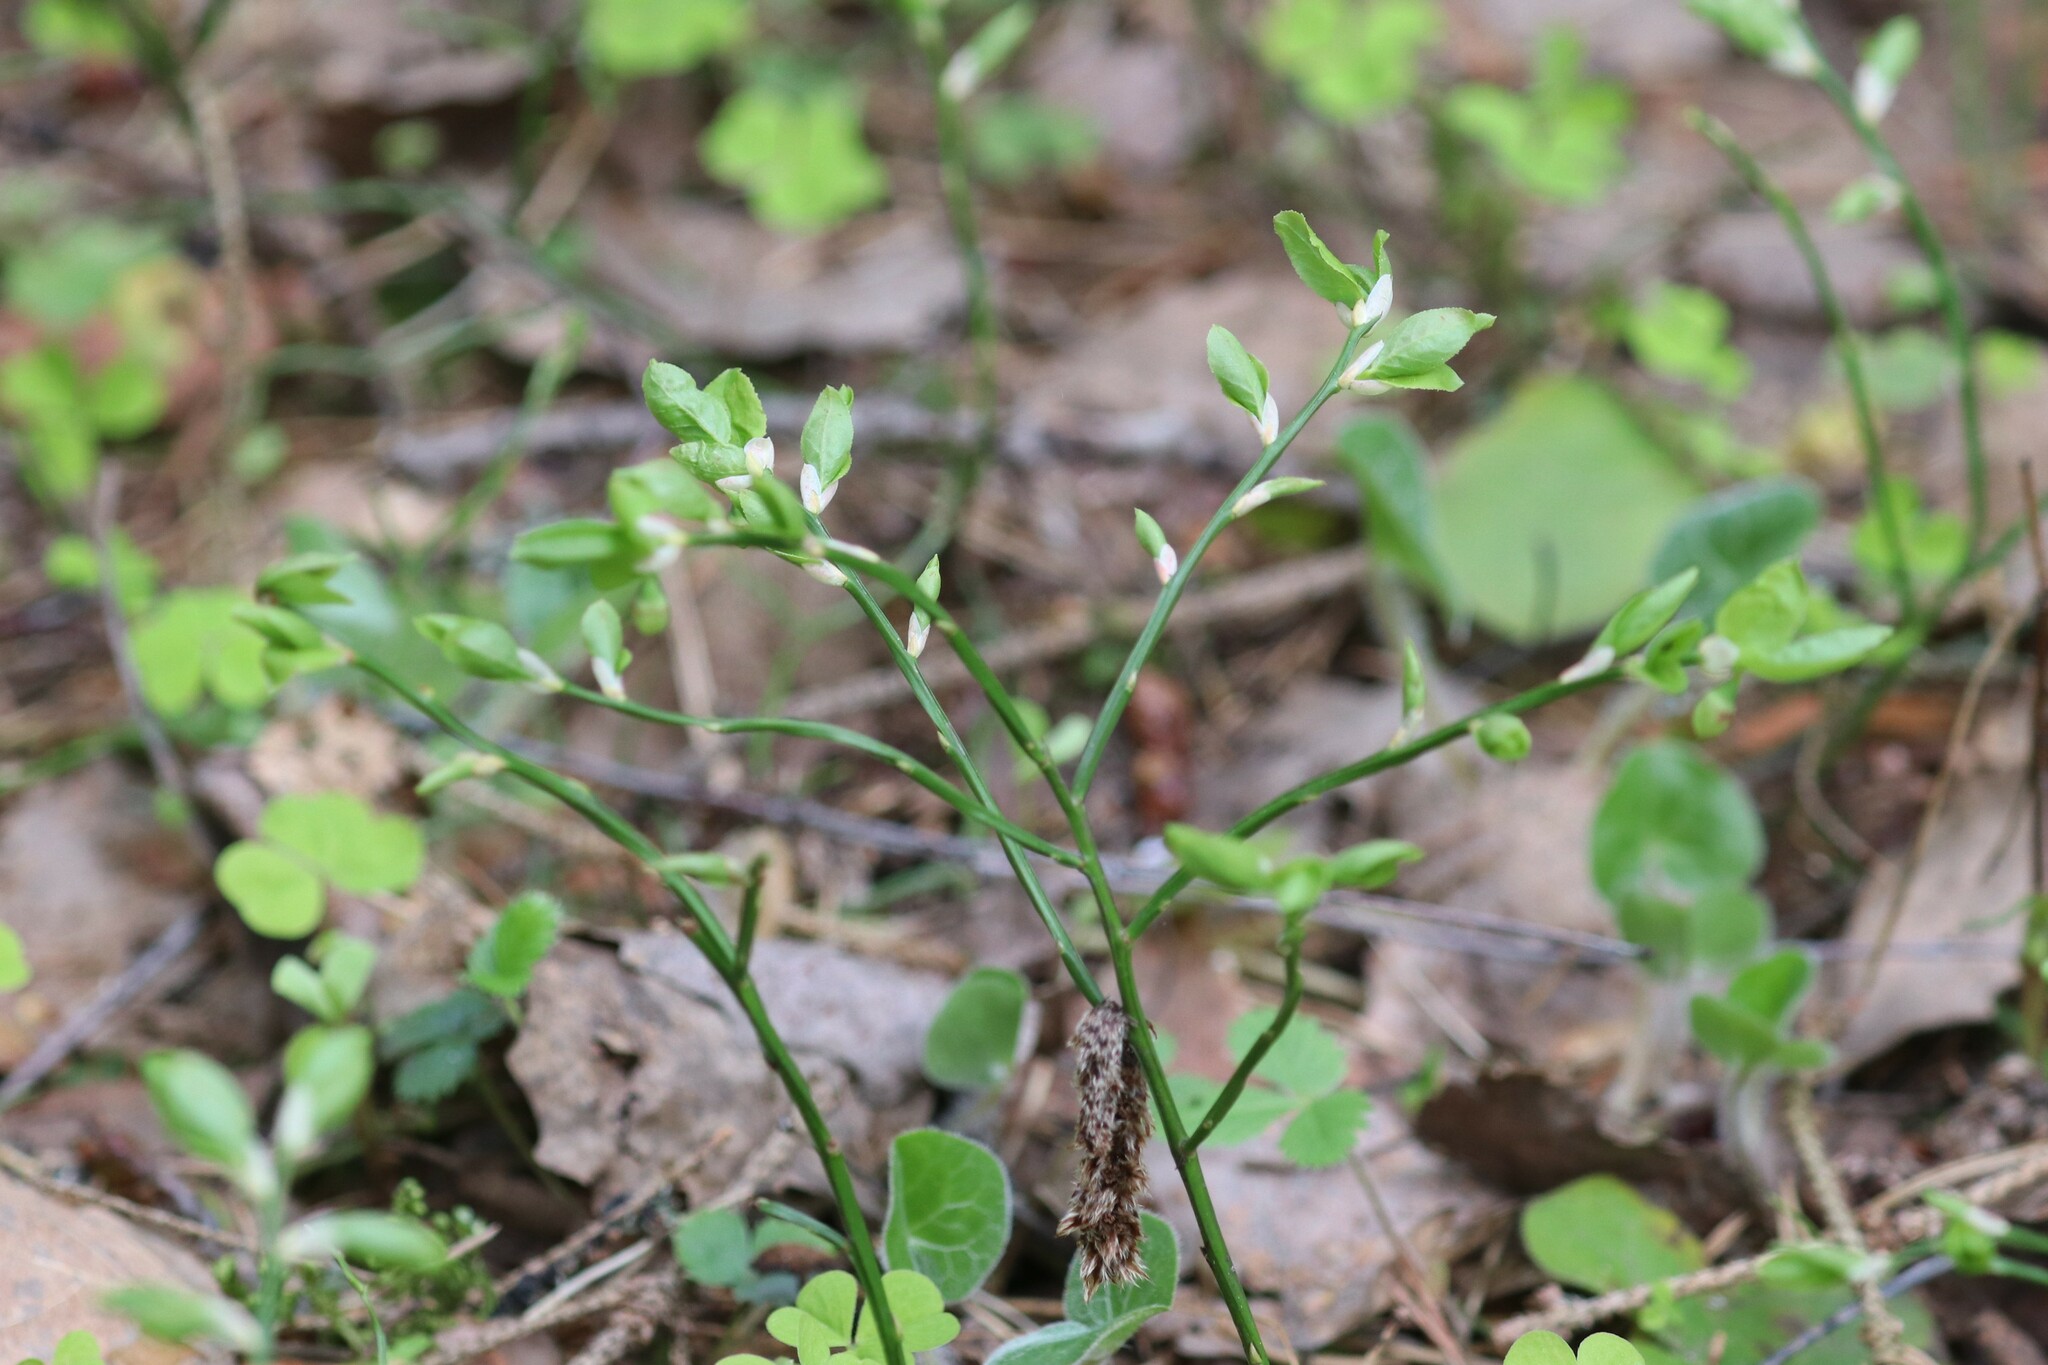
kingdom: Plantae
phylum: Tracheophyta
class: Magnoliopsida
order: Ericales
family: Ericaceae
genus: Vaccinium
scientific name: Vaccinium myrtillus
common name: Bilberry
